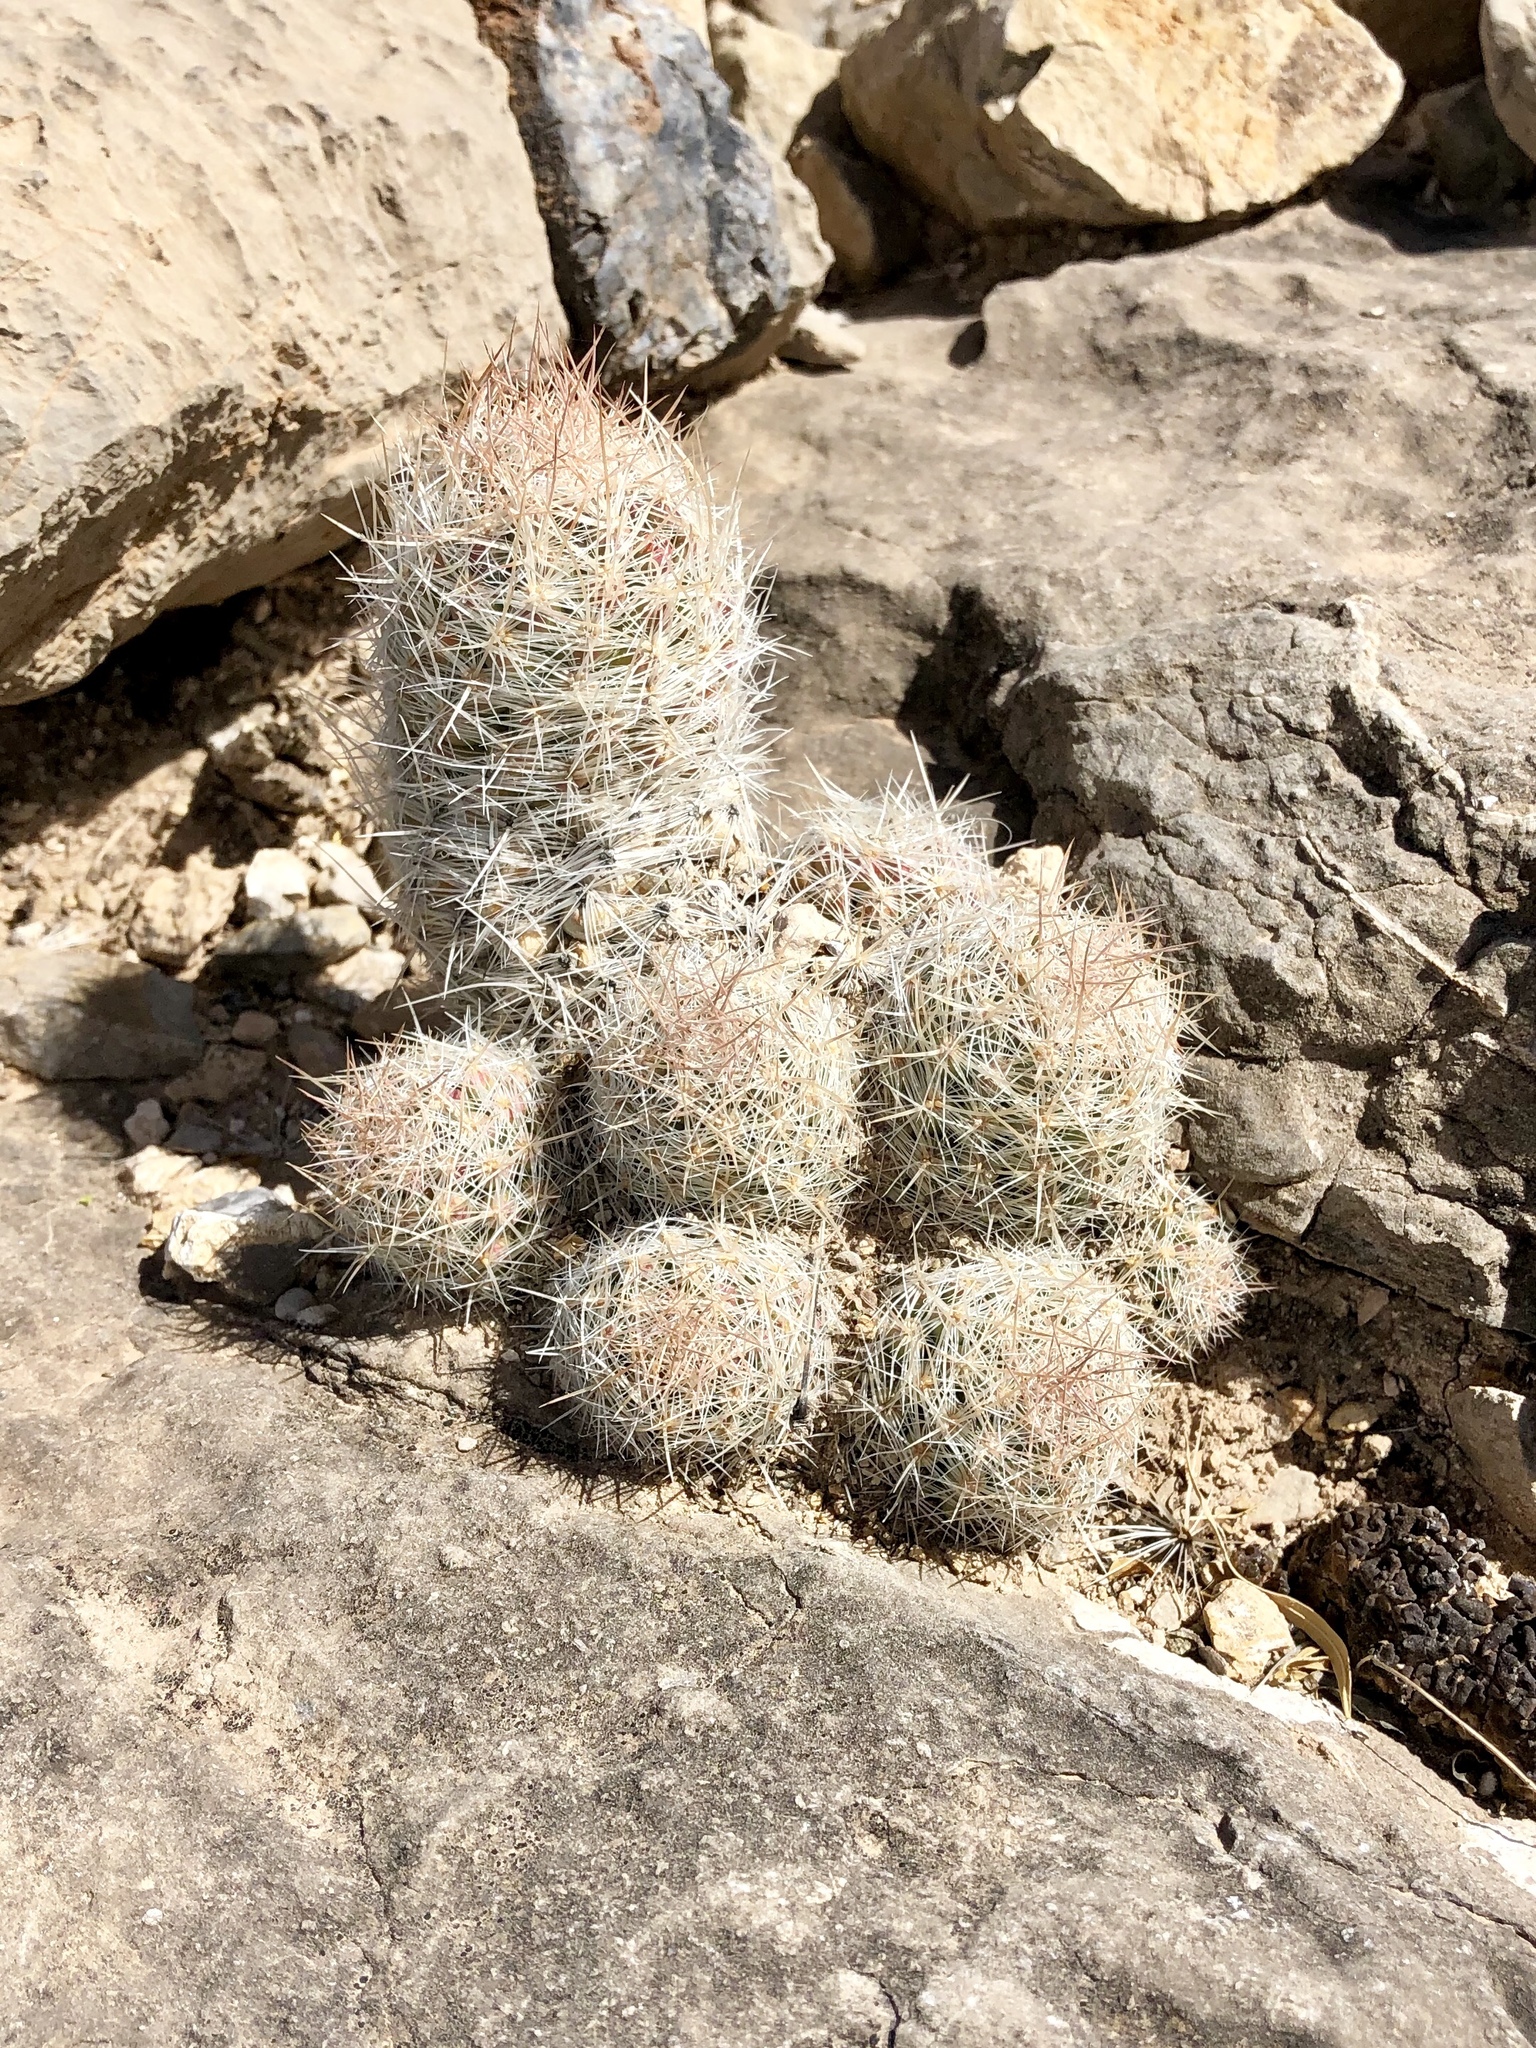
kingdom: Plantae
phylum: Tracheophyta
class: Magnoliopsida
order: Caryophyllales
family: Cactaceae
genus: Pelecyphora
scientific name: Pelecyphora tuberculosa
